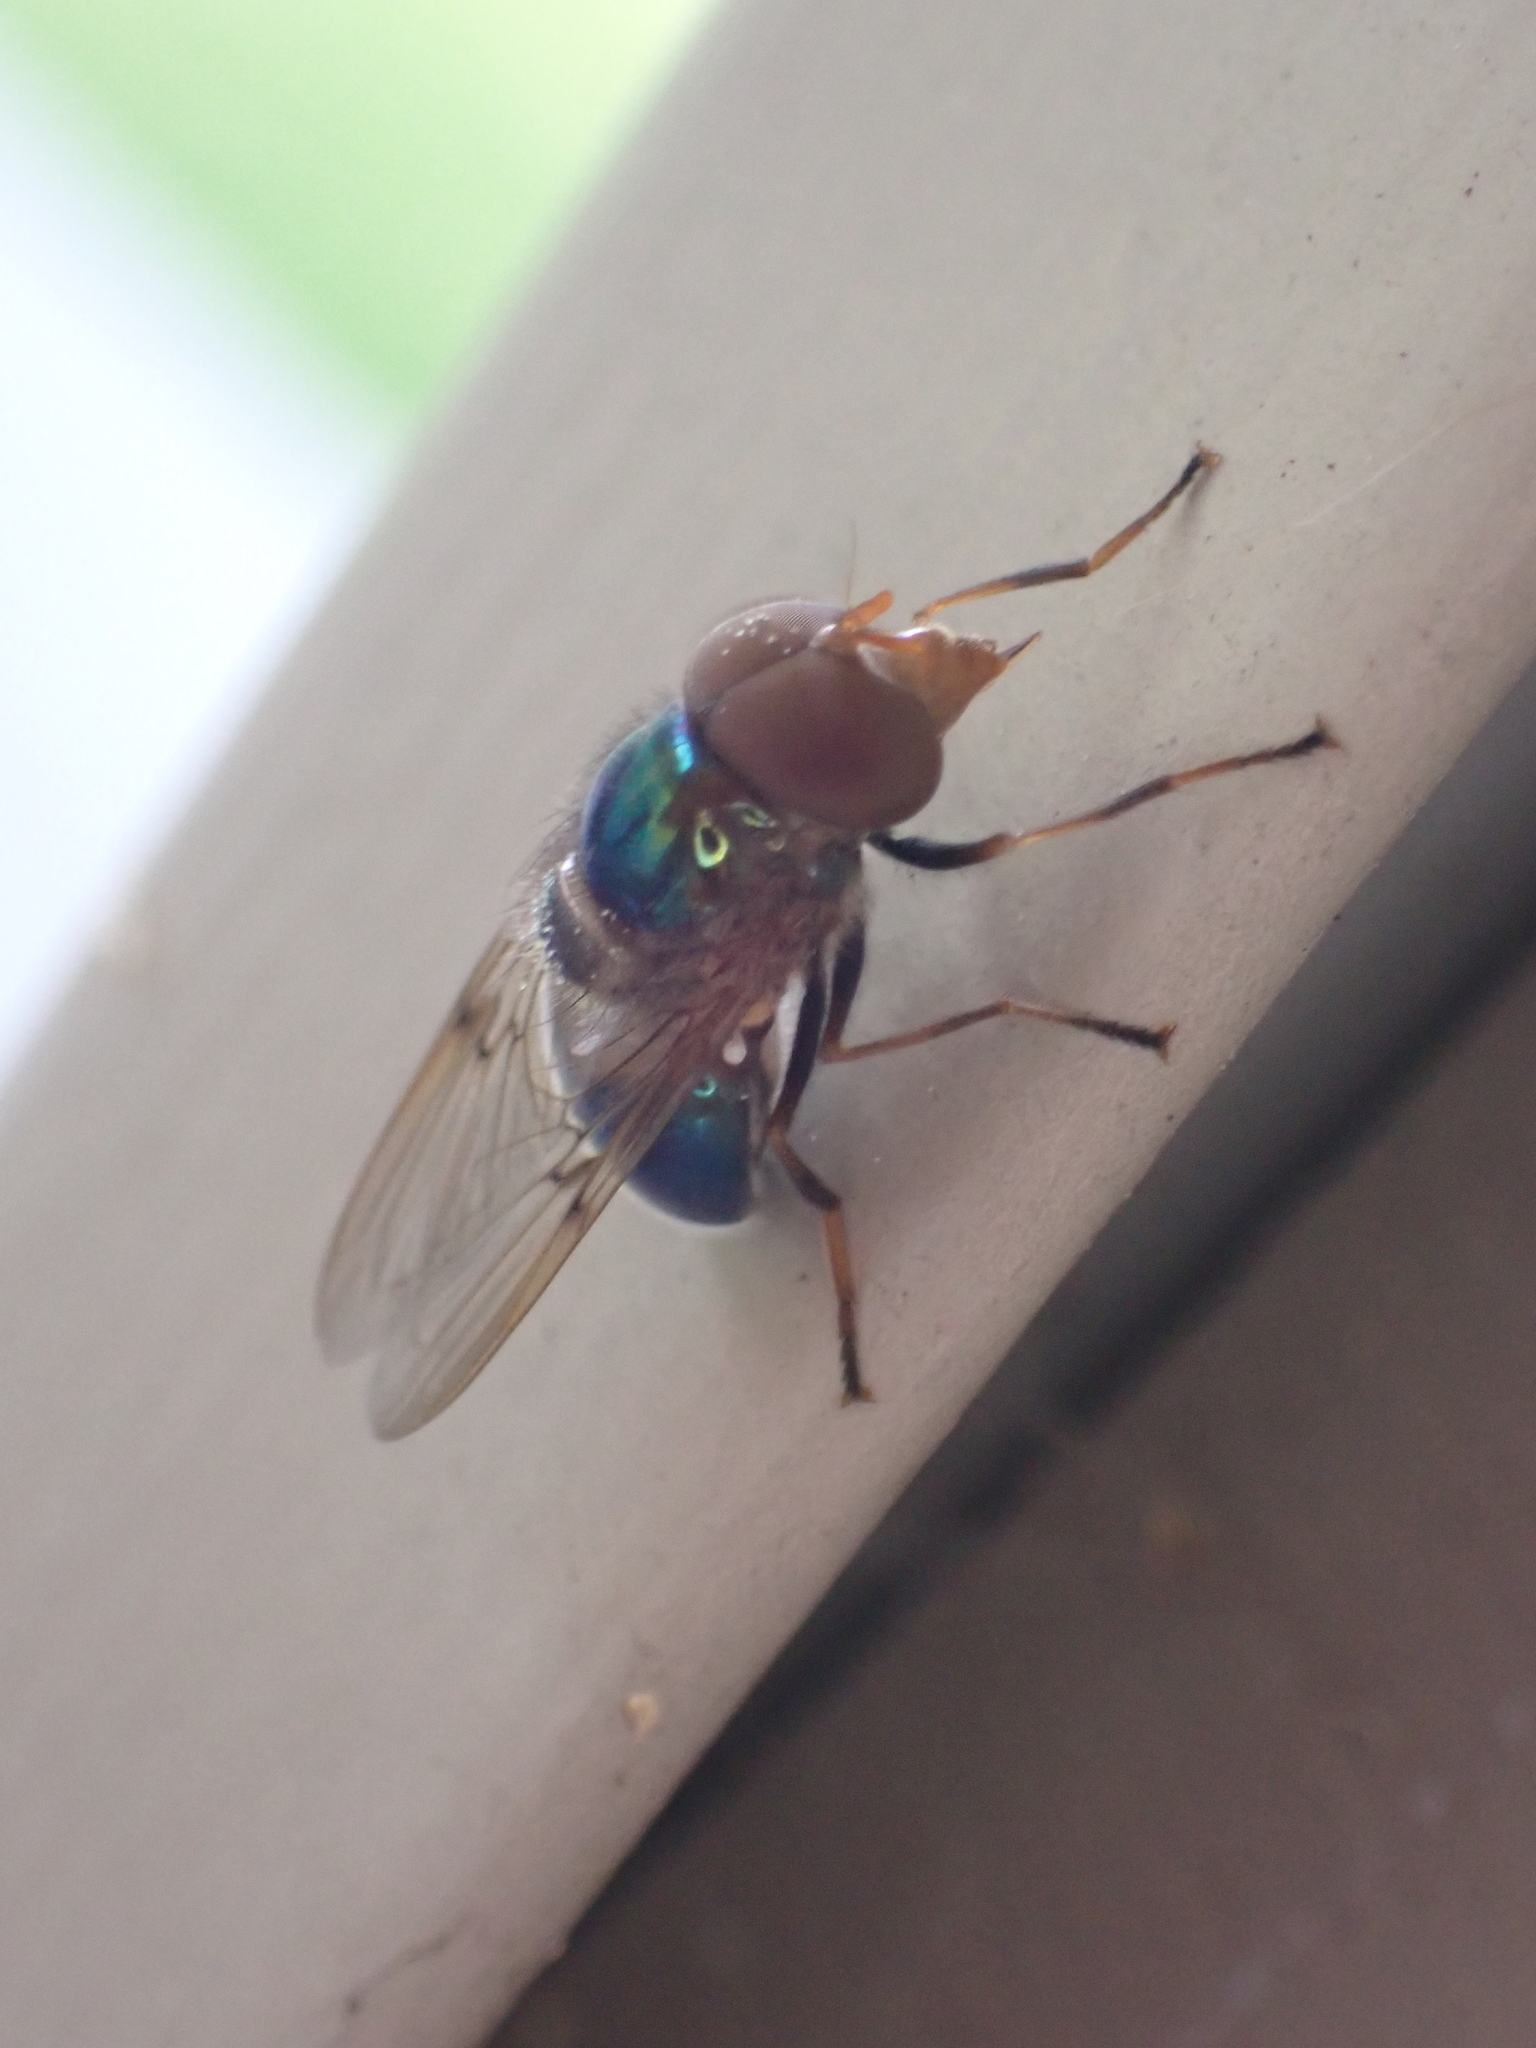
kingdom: Animalia
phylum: Arthropoda
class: Insecta
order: Diptera
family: Syrphidae
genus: Copestylum
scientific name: Copestylum vesicularium
